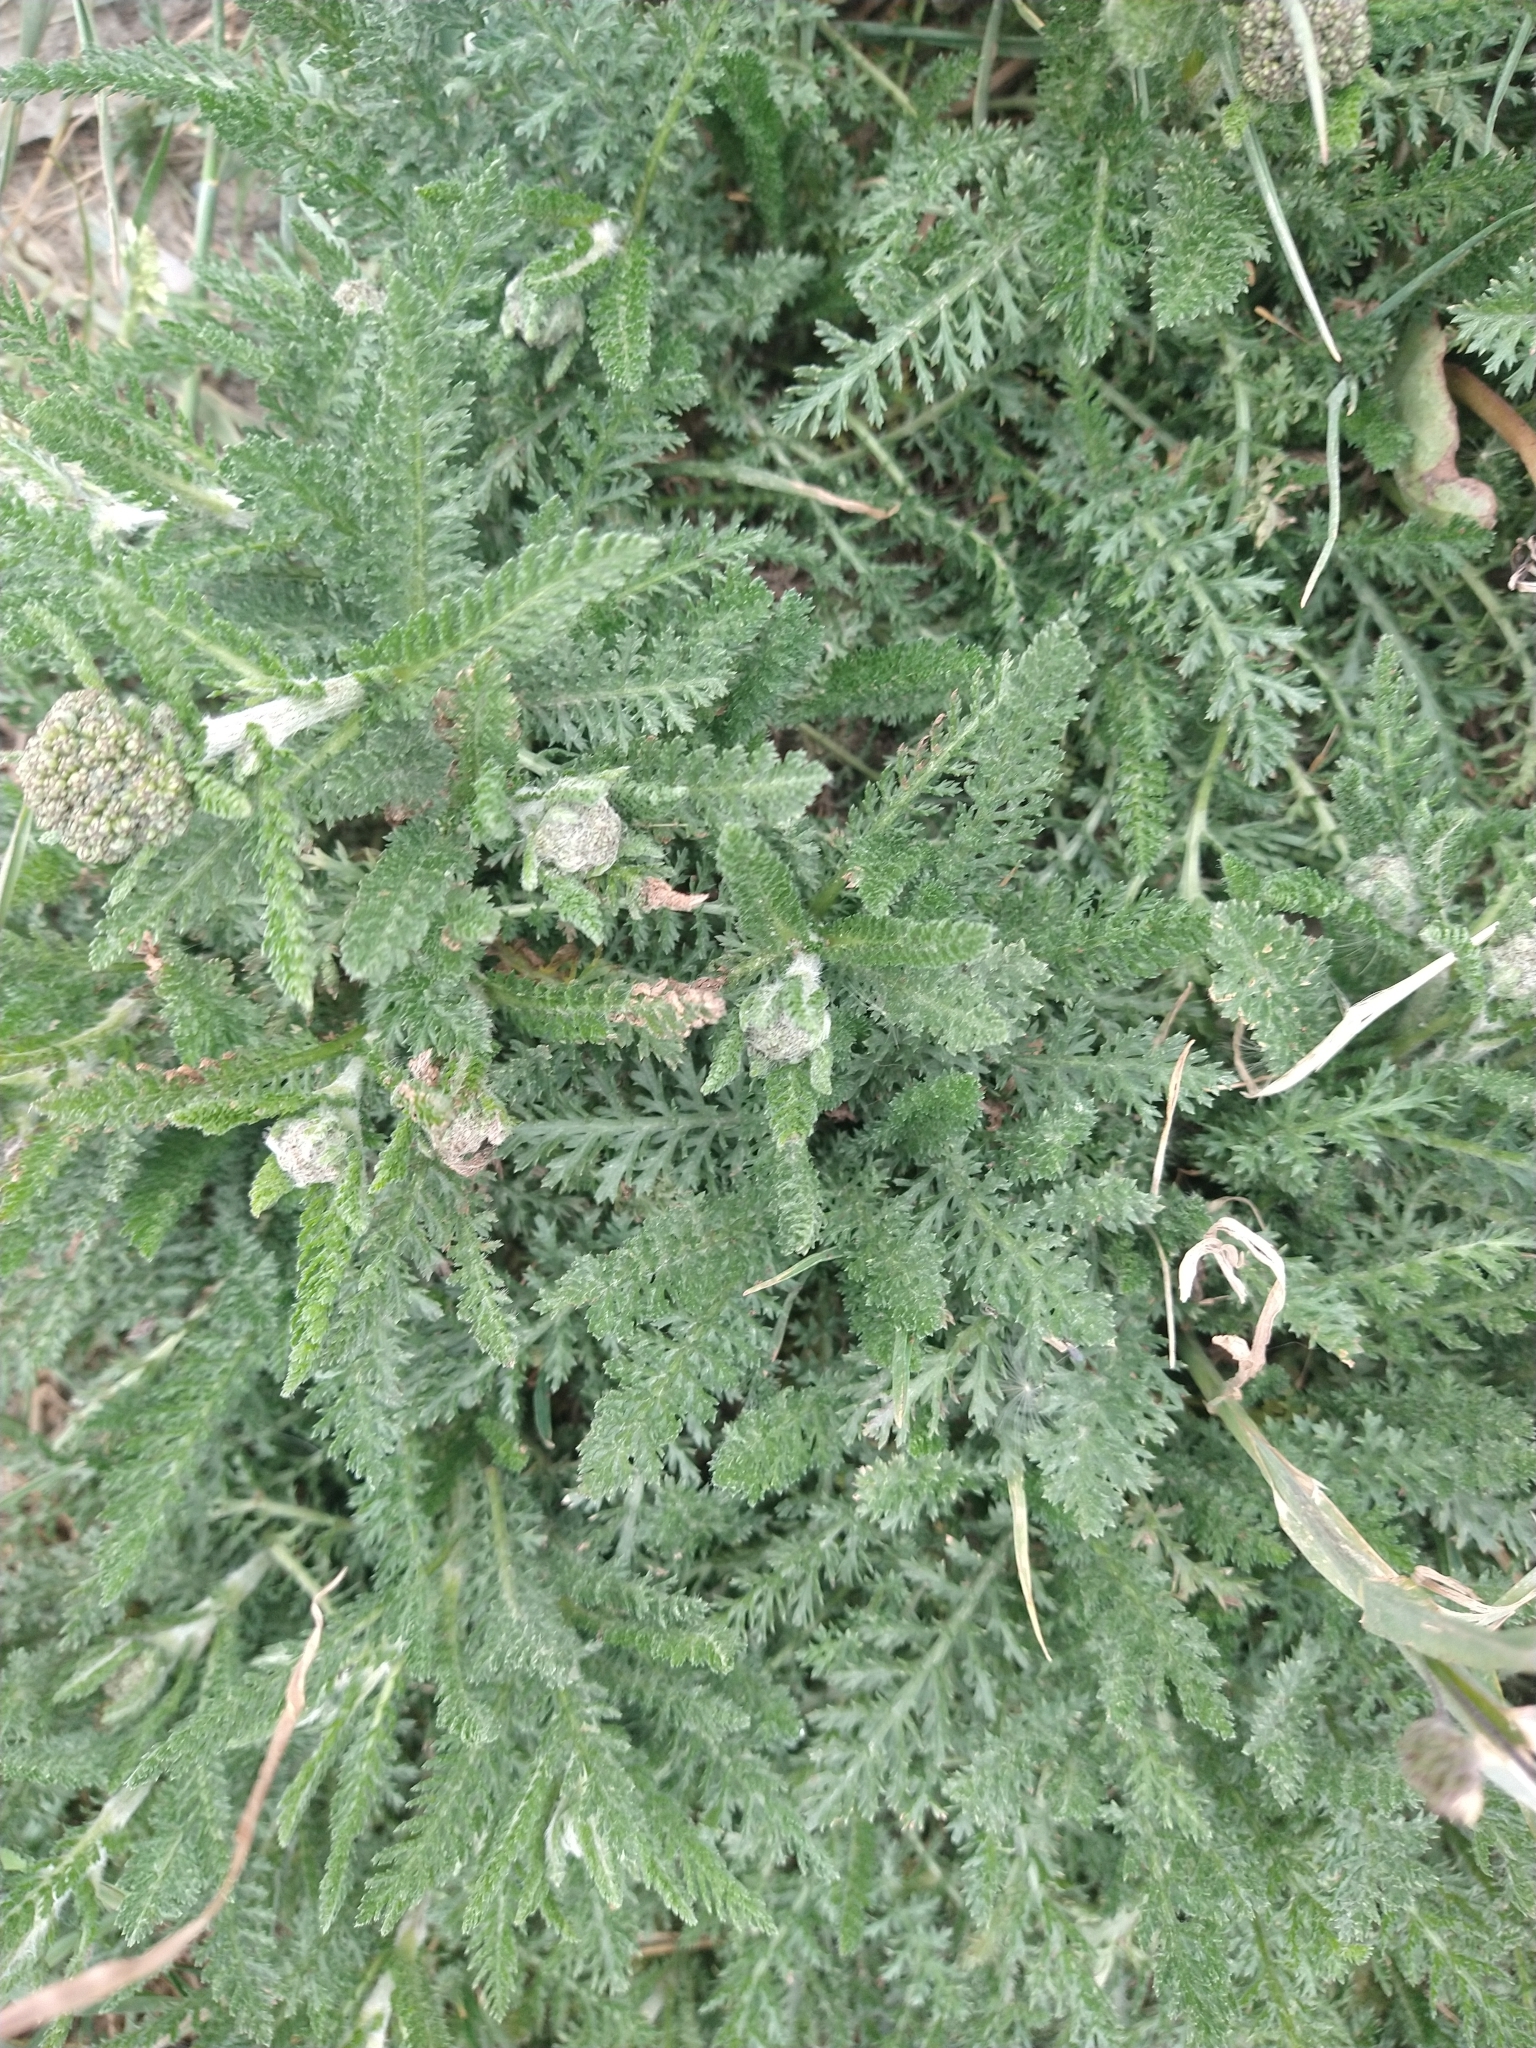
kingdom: Plantae
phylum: Tracheophyta
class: Magnoliopsida
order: Asterales
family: Asteraceae
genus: Achillea
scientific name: Achillea millefolium
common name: Yarrow
